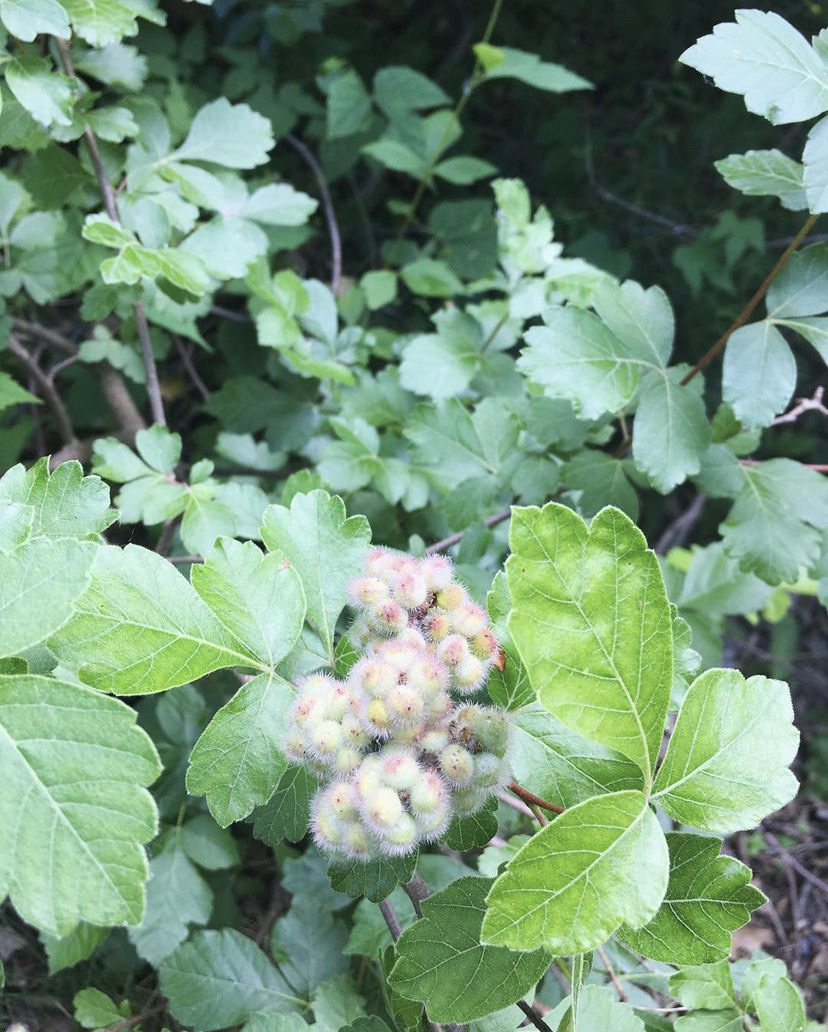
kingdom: Plantae
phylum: Tracheophyta
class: Magnoliopsida
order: Sapindales
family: Anacardiaceae
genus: Rhus
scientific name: Rhus aromatica
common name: Aromatic sumac
